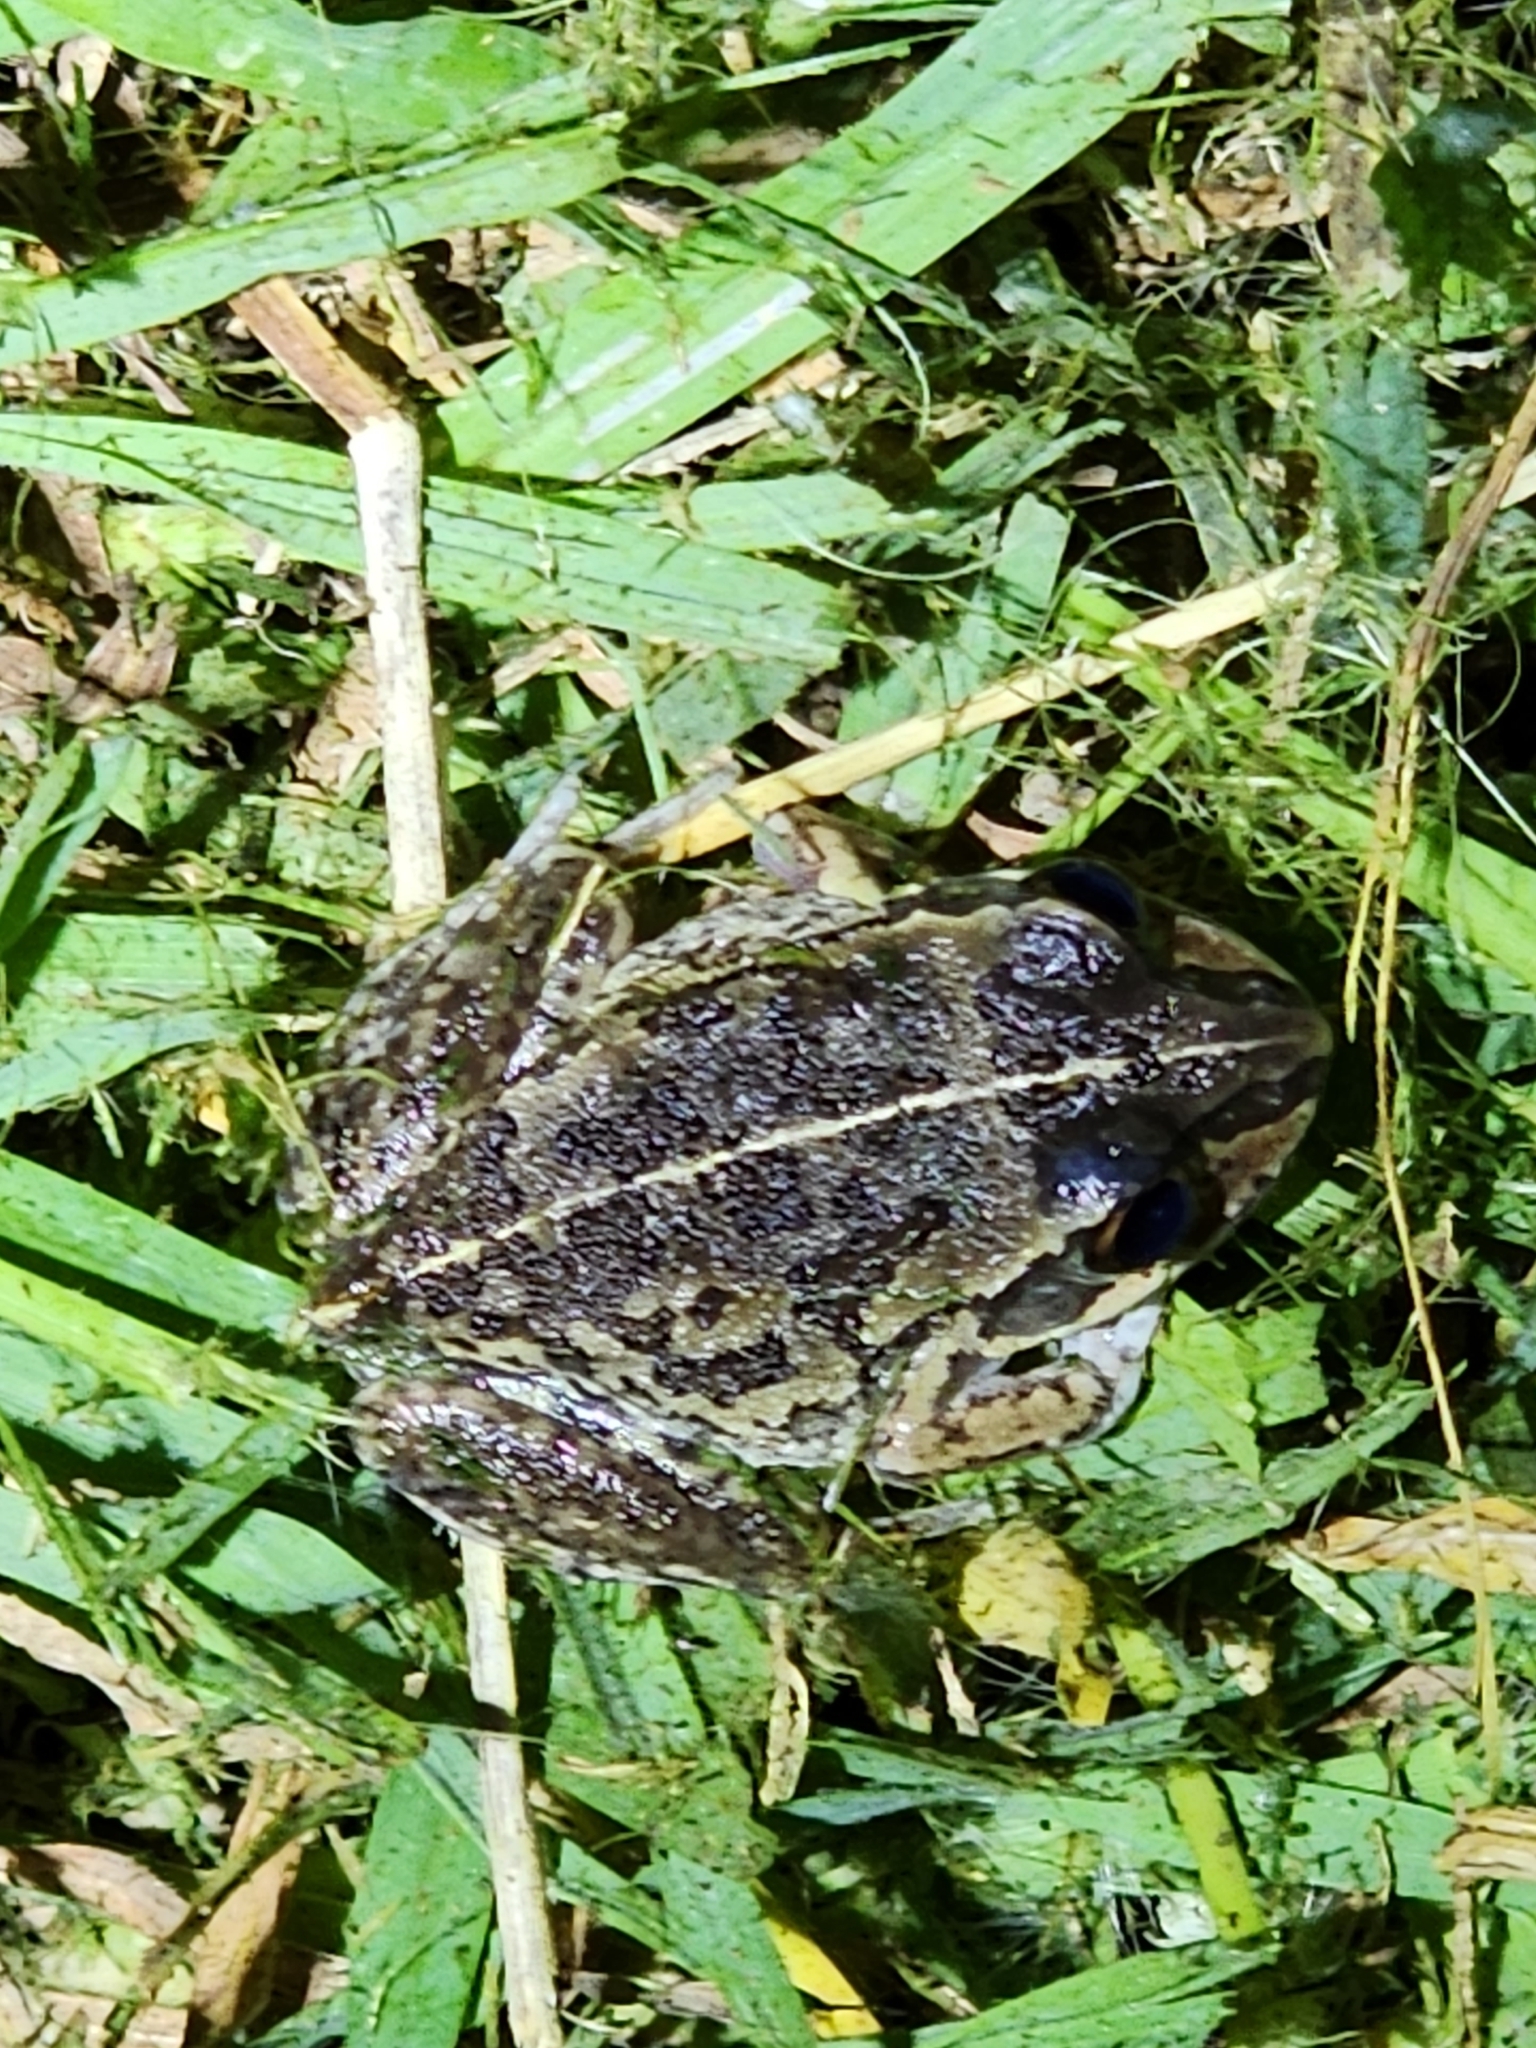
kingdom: Animalia
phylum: Chordata
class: Amphibia
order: Anura
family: Pelodryadidae
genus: Ranoidea
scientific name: Ranoidea brevipes
